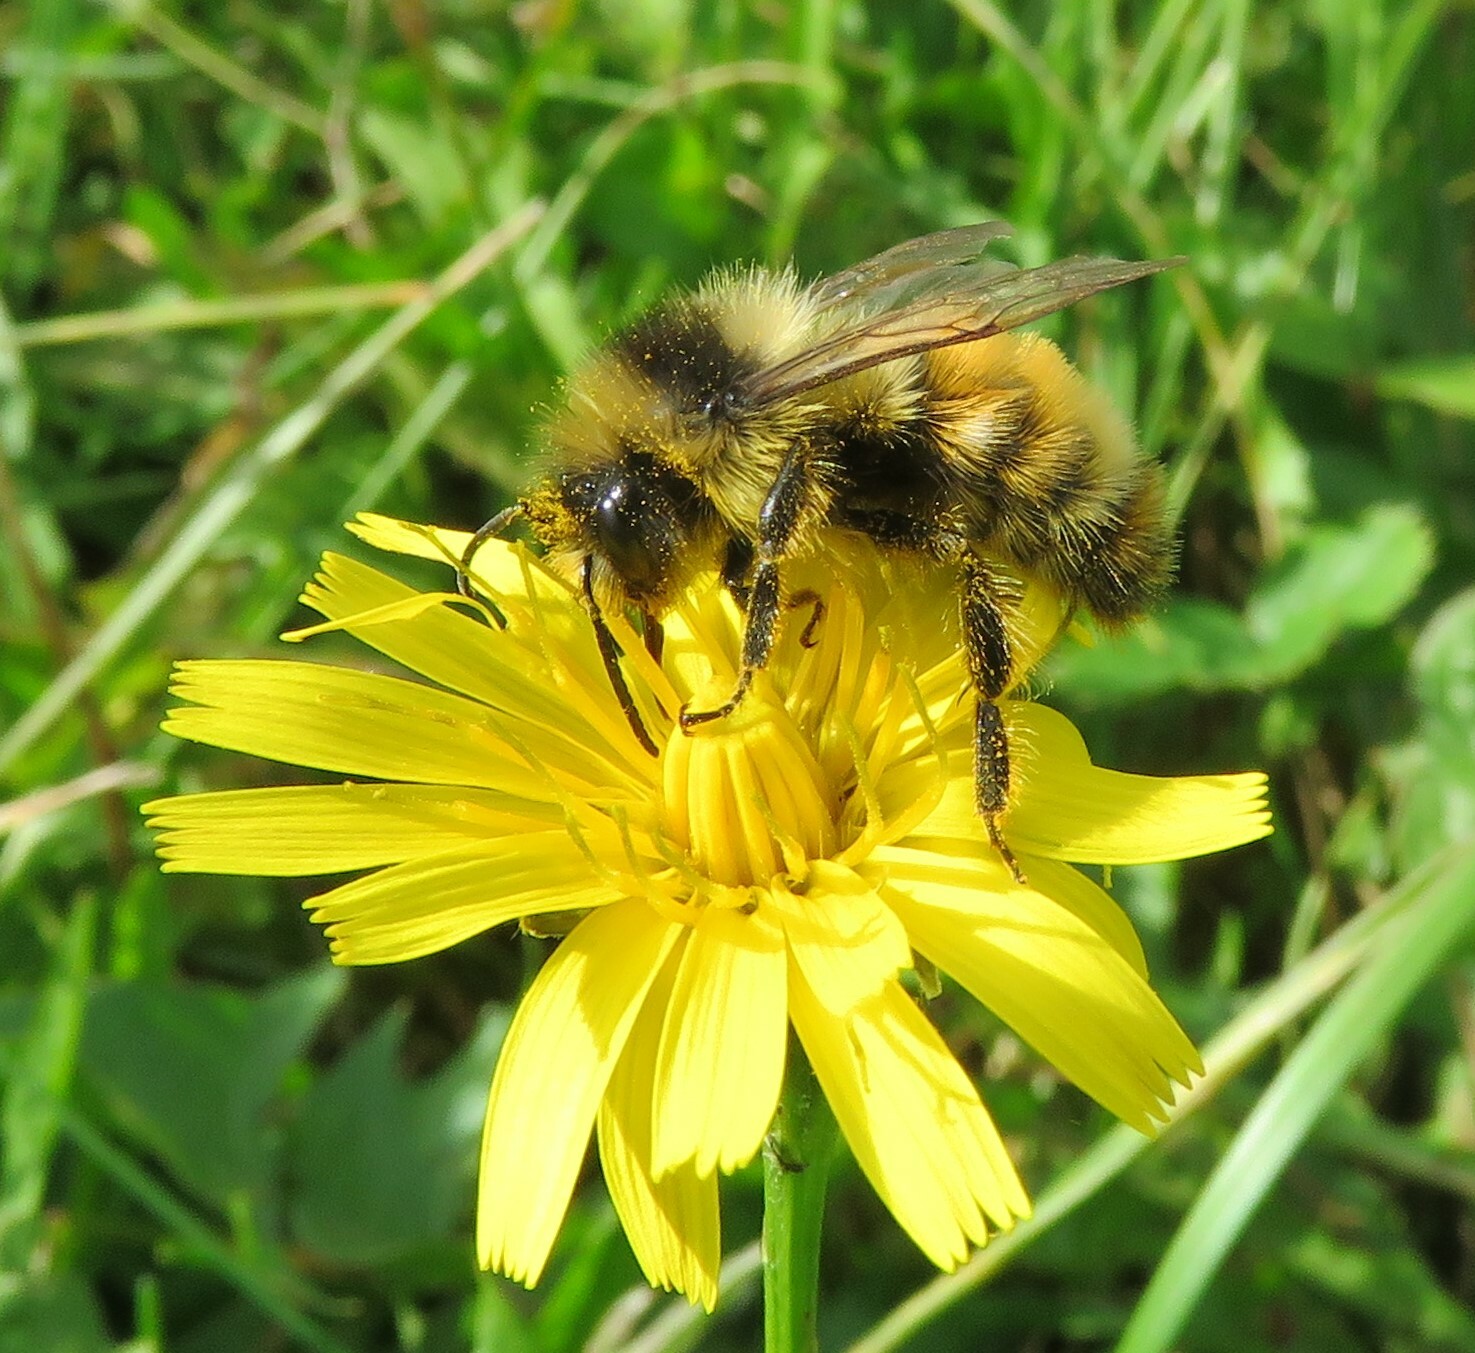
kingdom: Animalia
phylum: Arthropoda
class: Insecta
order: Hymenoptera
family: Apidae
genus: Bombus
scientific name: Bombus ternarius
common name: Tri-colored bumble bee
